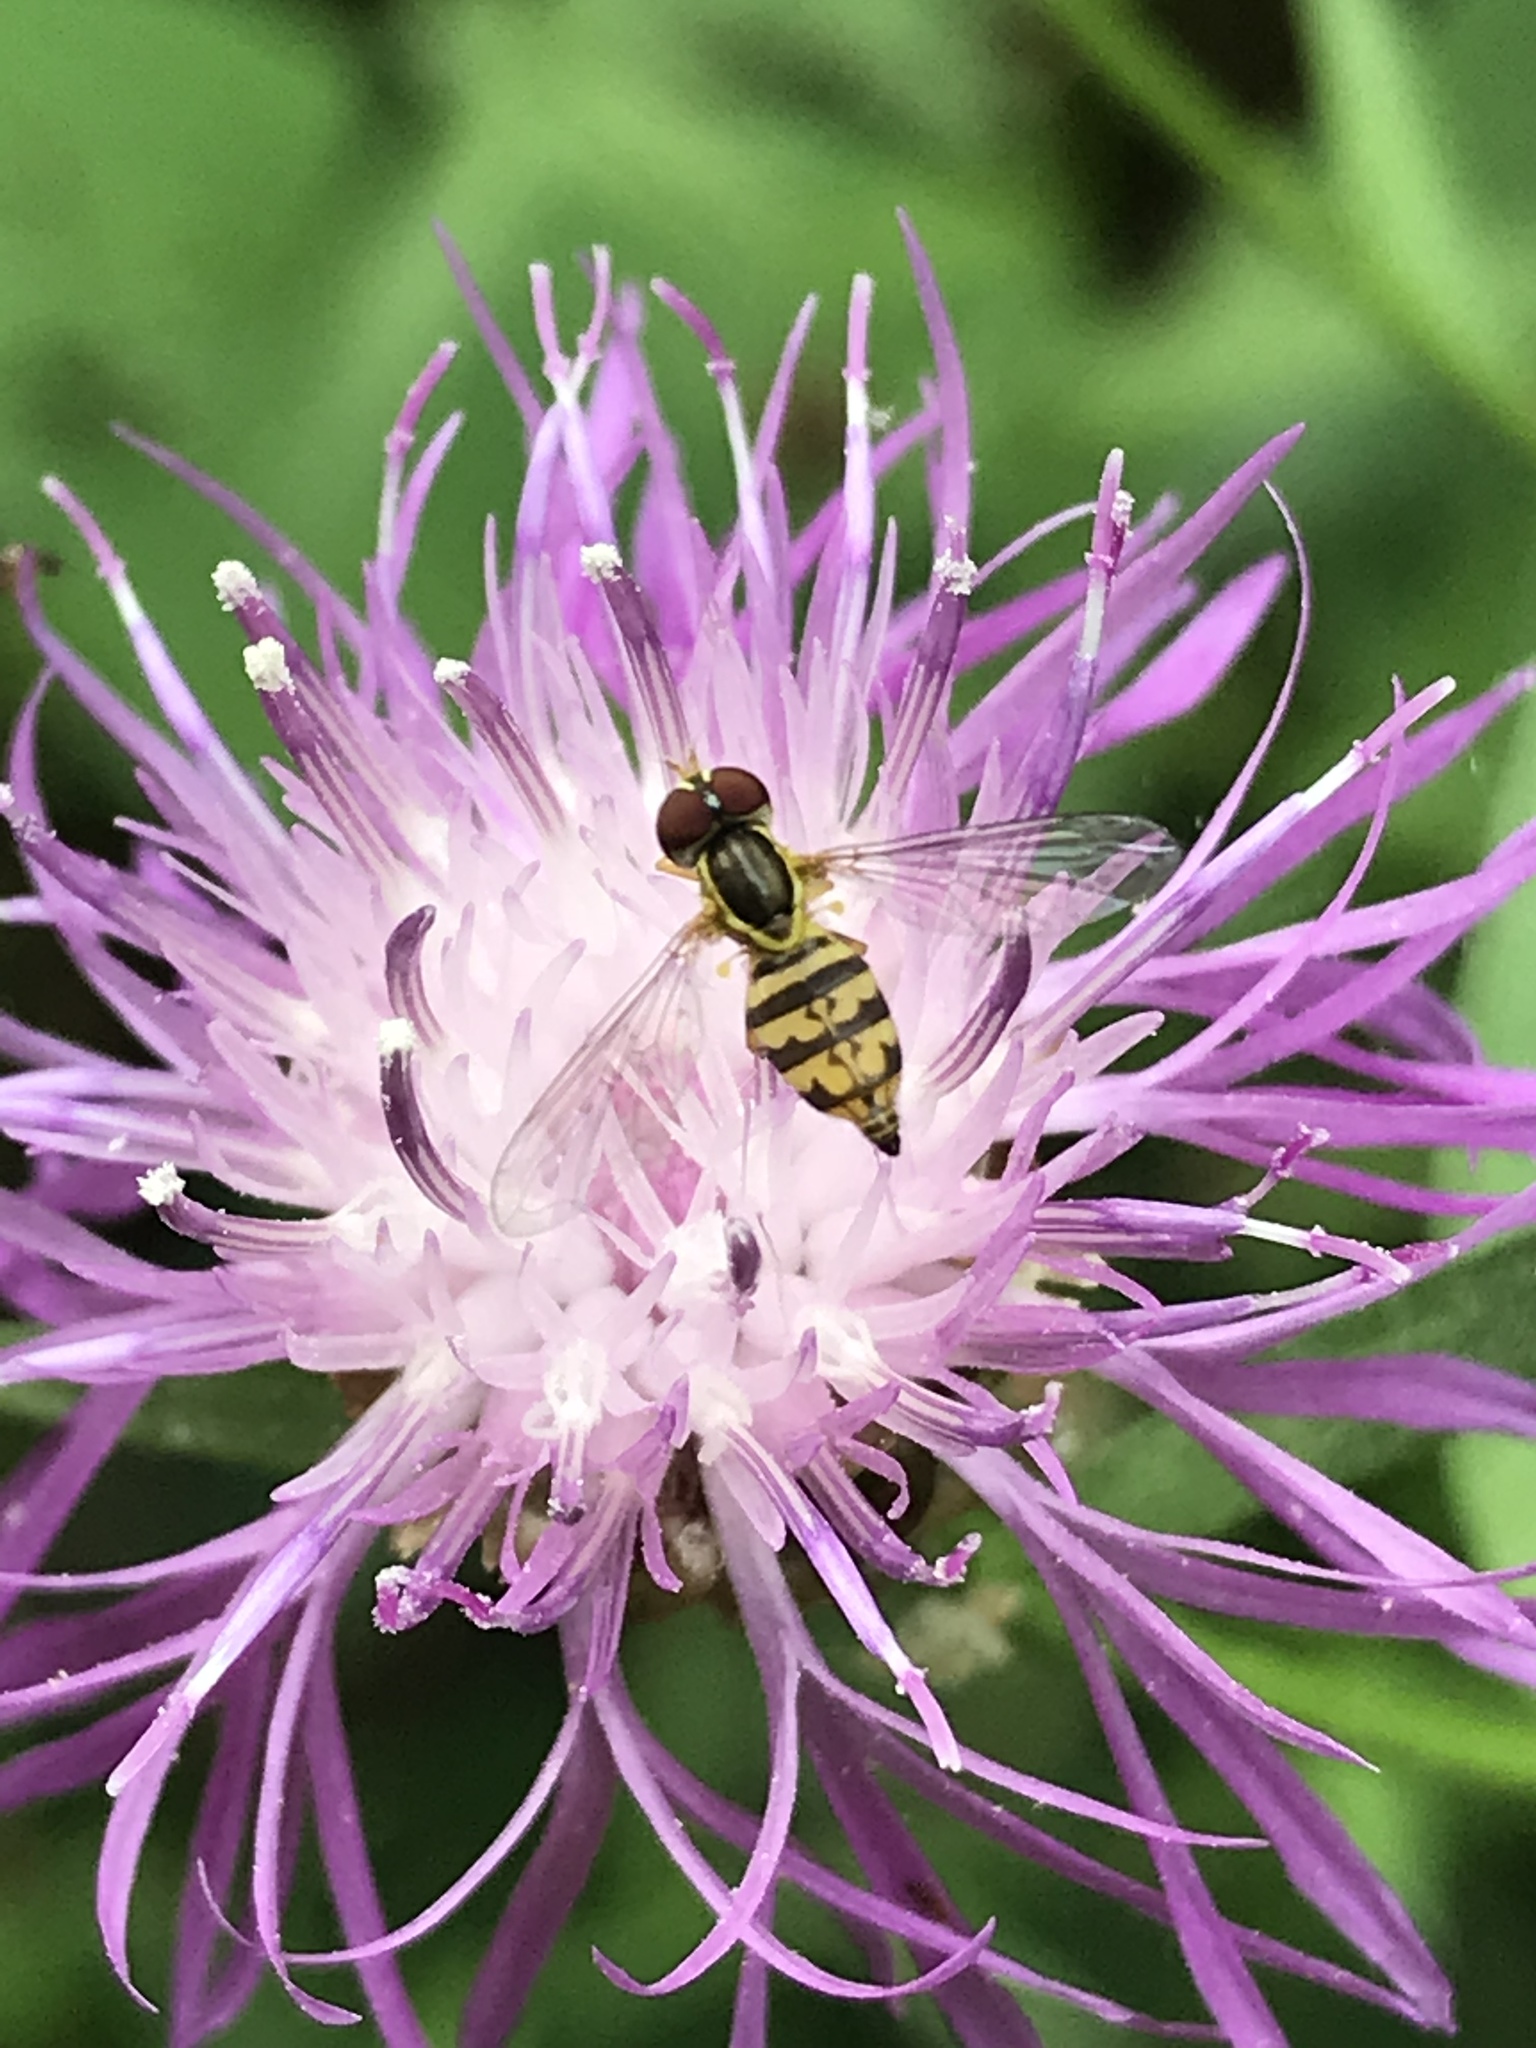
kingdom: Animalia
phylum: Arthropoda
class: Insecta
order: Diptera
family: Syrphidae
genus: Toxomerus
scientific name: Toxomerus geminatus
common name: Eastern calligrapher
